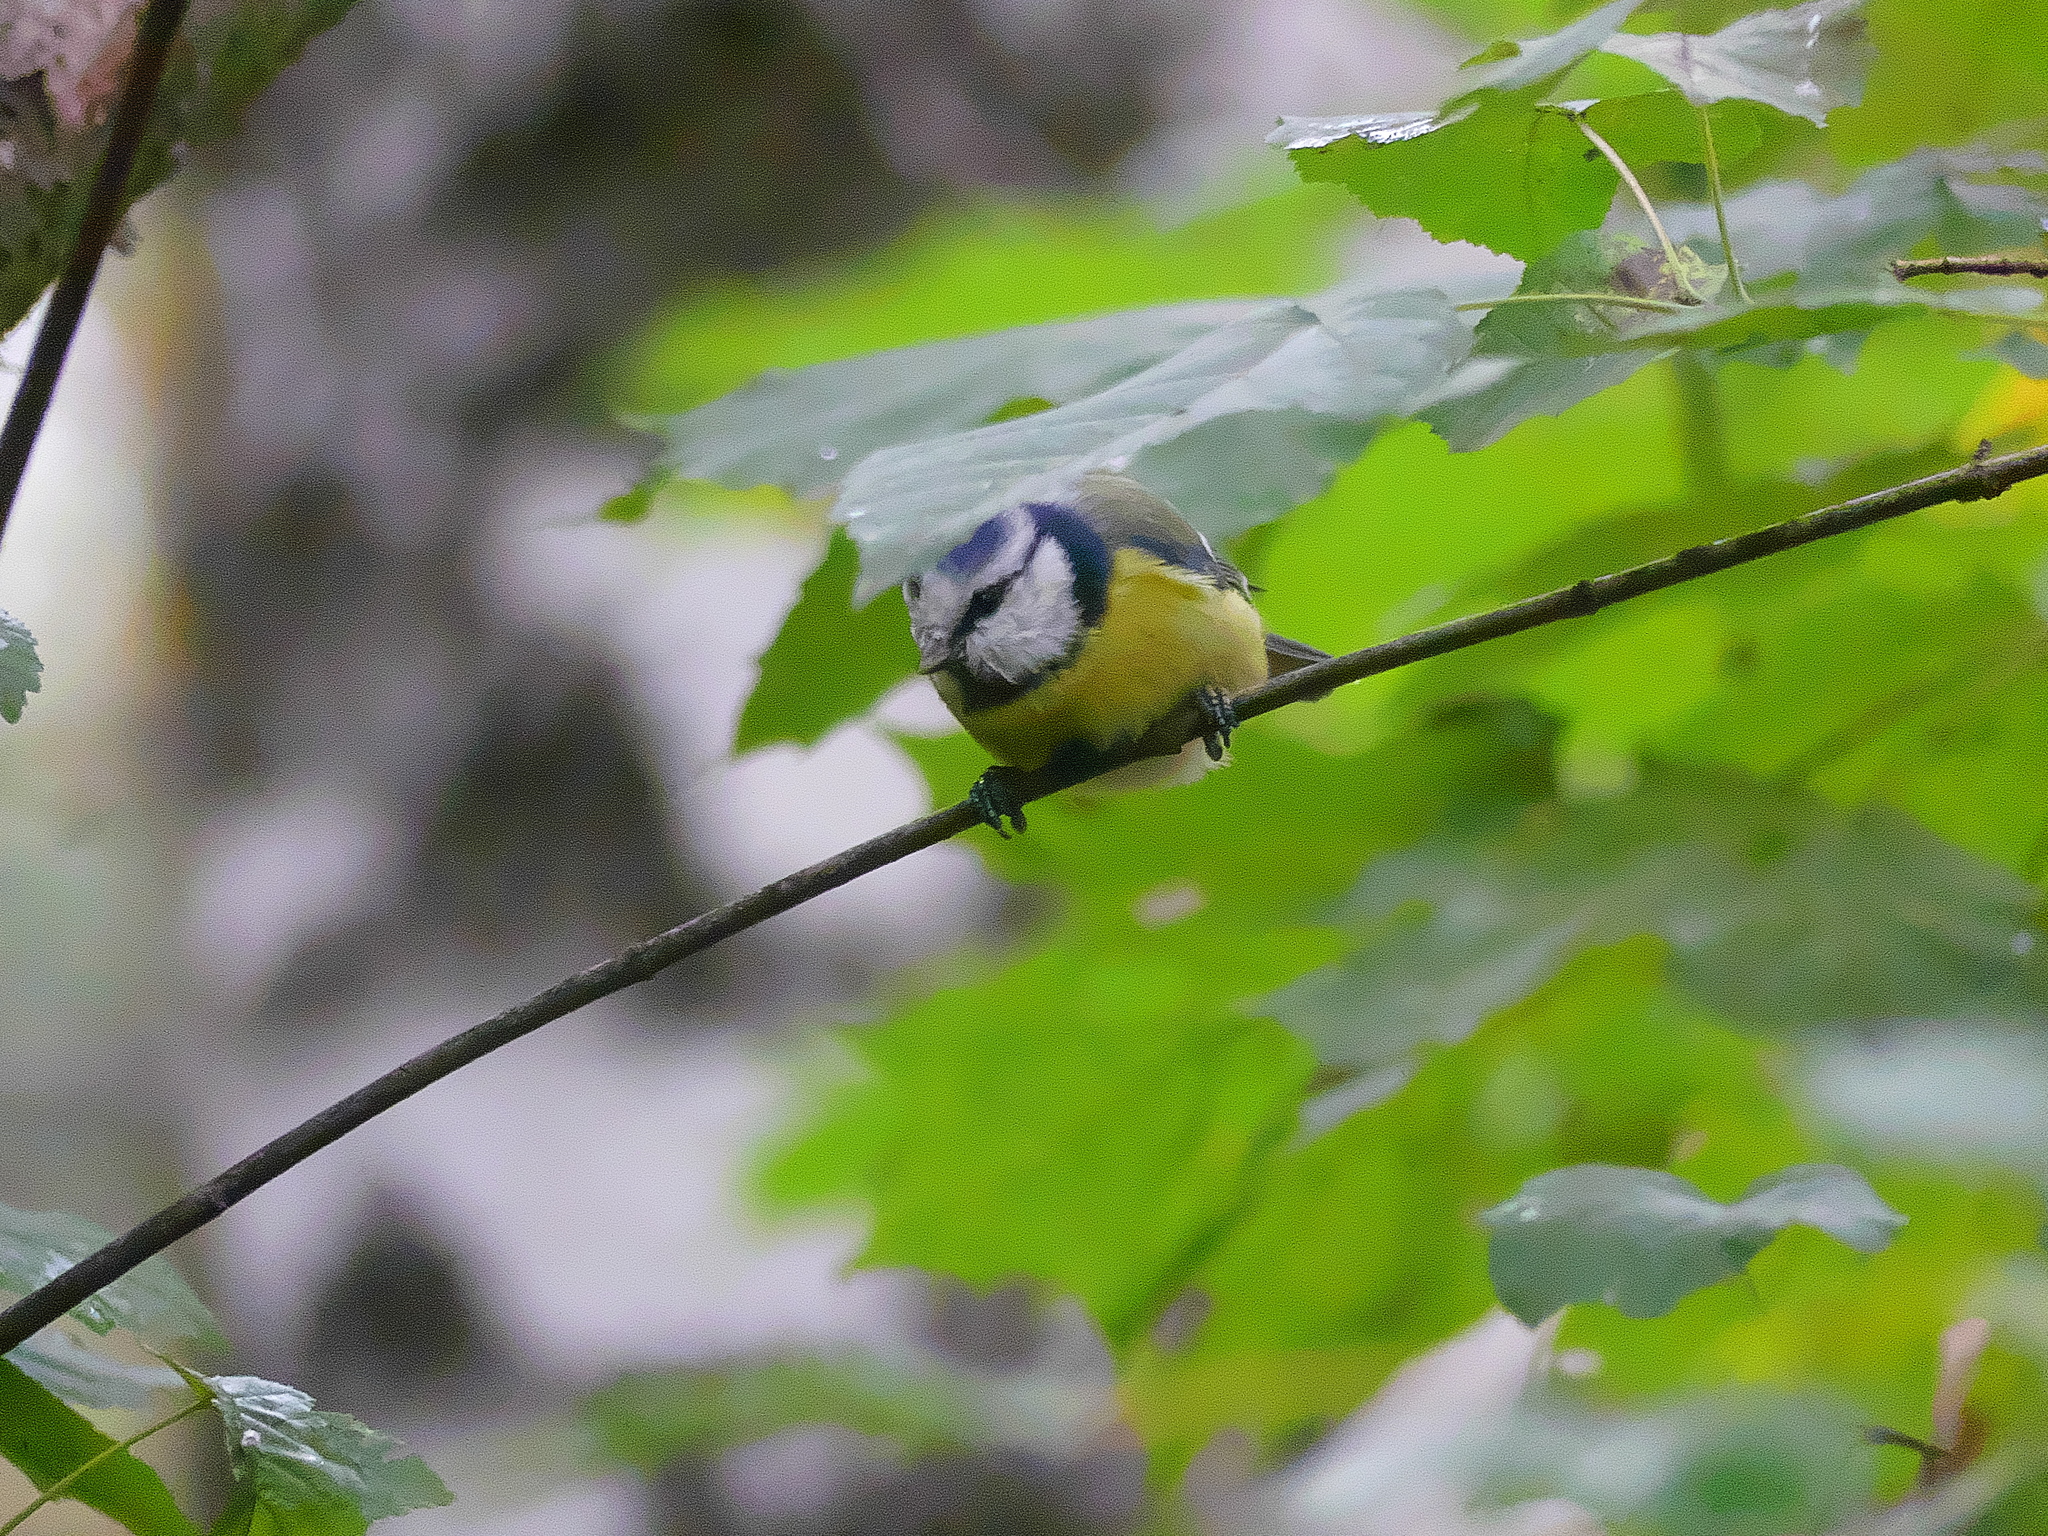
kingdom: Animalia
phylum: Chordata
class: Aves
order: Passeriformes
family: Paridae
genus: Cyanistes
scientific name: Cyanistes caeruleus
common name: Eurasian blue tit
